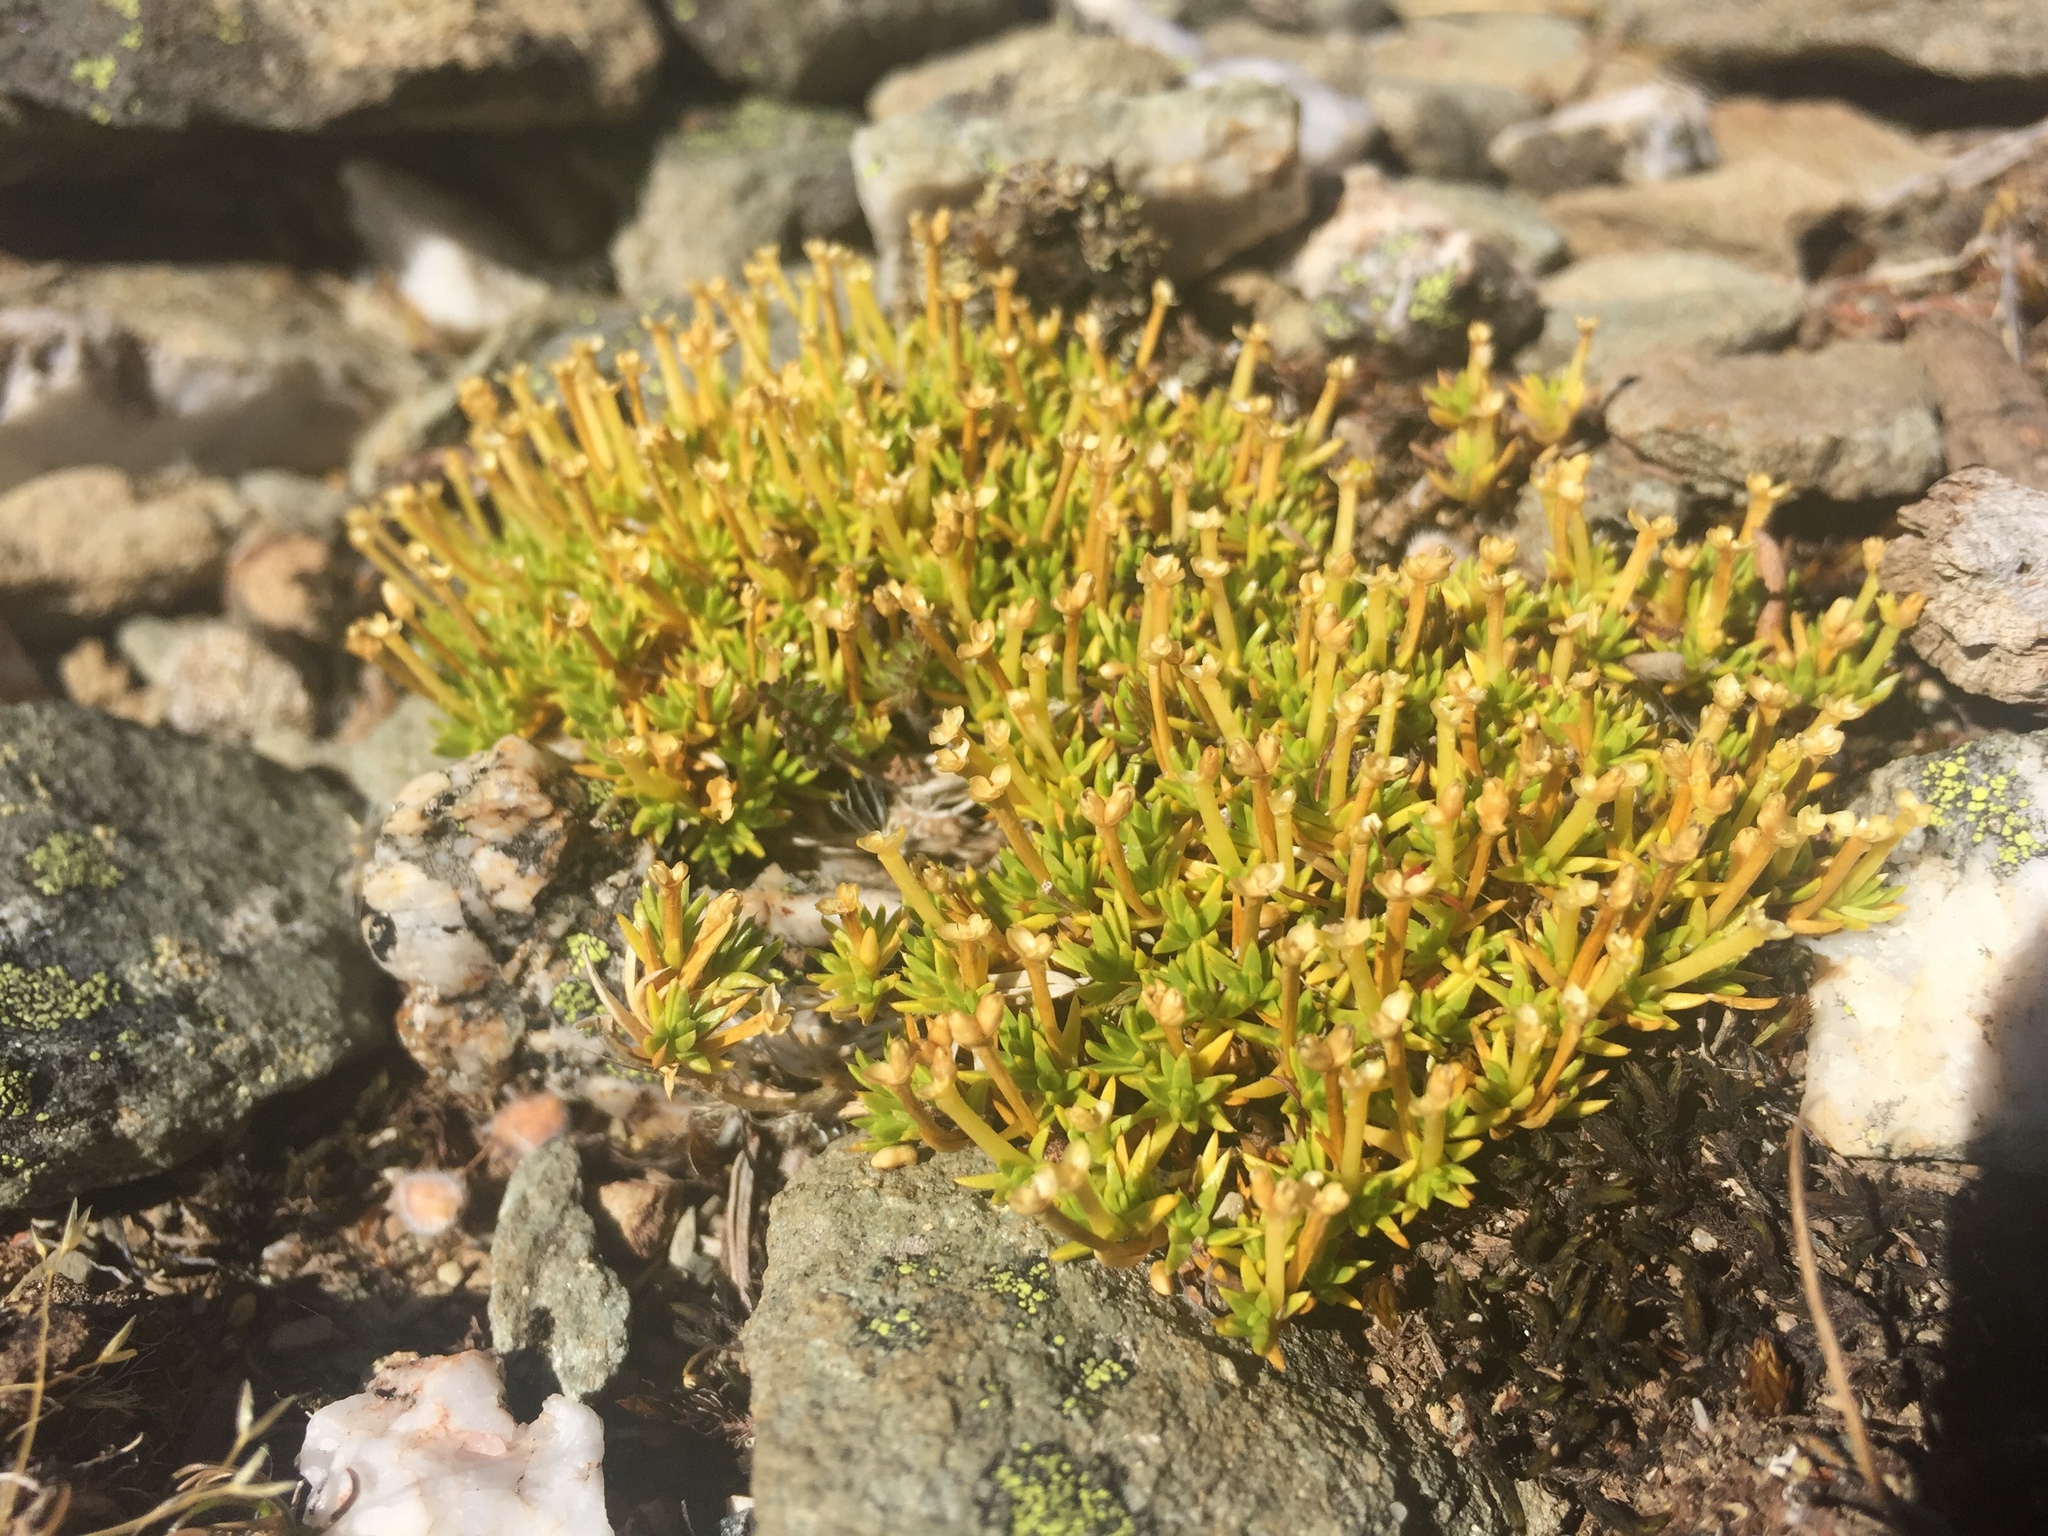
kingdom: Plantae
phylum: Tracheophyta
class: Magnoliopsida
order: Caryophyllales
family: Caryophyllaceae
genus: Scleranthus
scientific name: Scleranthus biflorus
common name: Two-flower knawel
